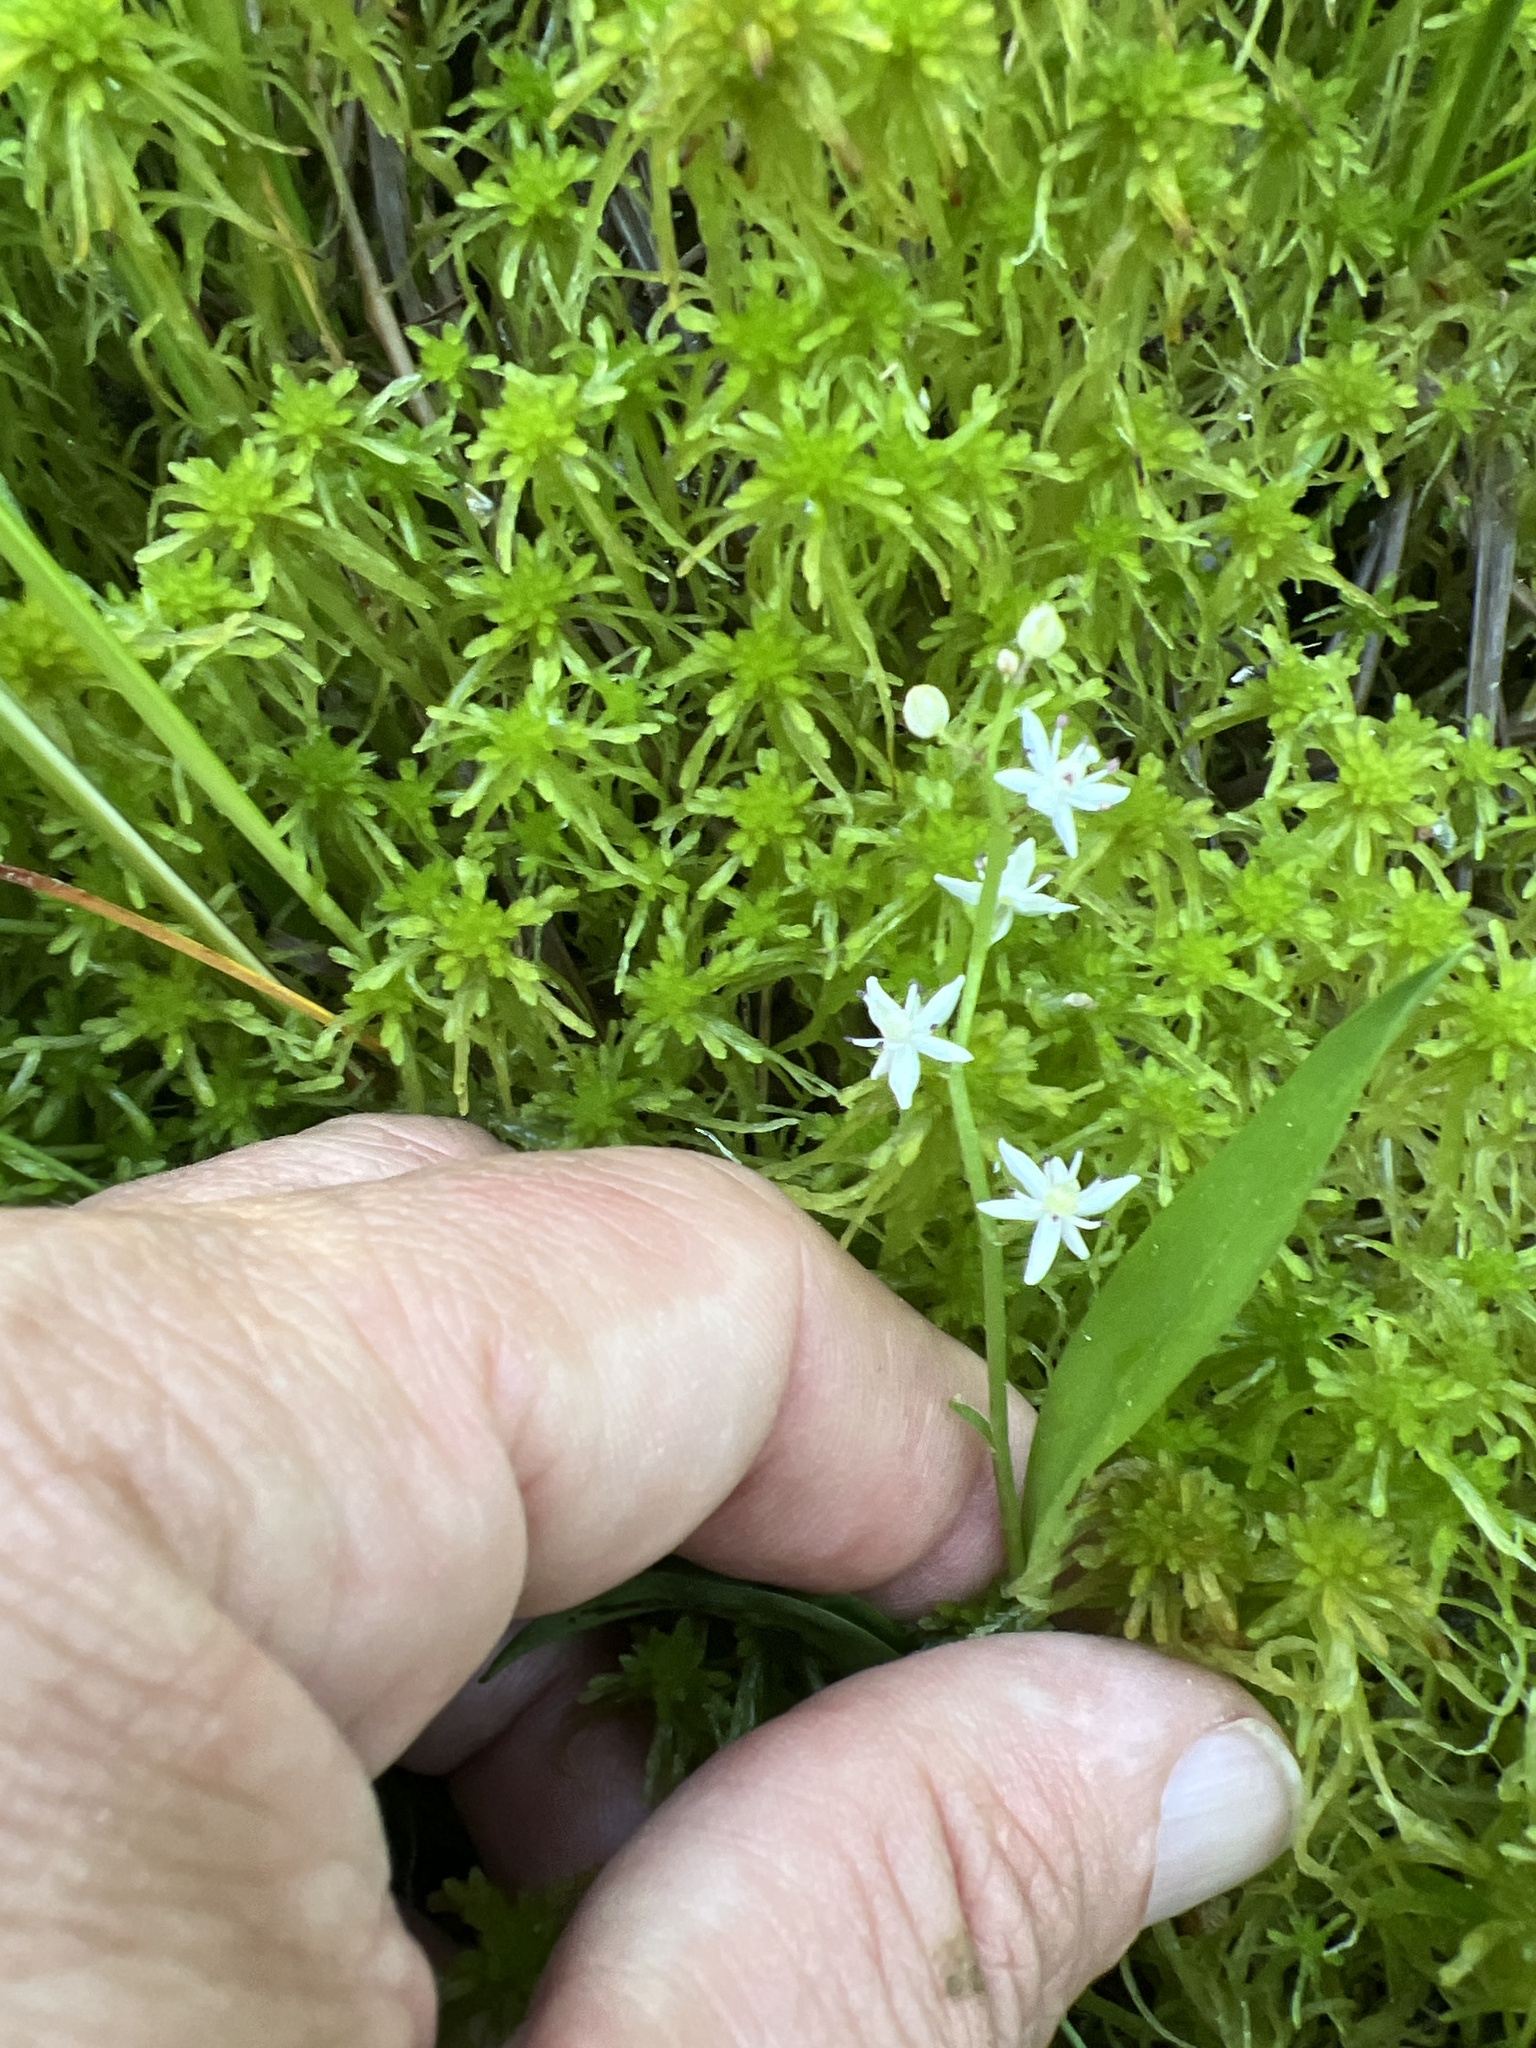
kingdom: Plantae
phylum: Tracheophyta
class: Liliopsida
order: Asparagales
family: Asparagaceae
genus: Maianthemum
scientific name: Maianthemum trifolium
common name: Swamp false solomon's seal
